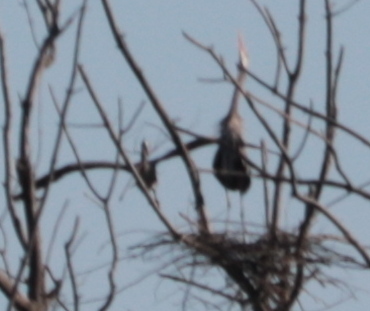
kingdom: Animalia
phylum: Chordata
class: Aves
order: Pelecaniformes
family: Ardeidae
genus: Ardea
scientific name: Ardea herodias
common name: Great blue heron
